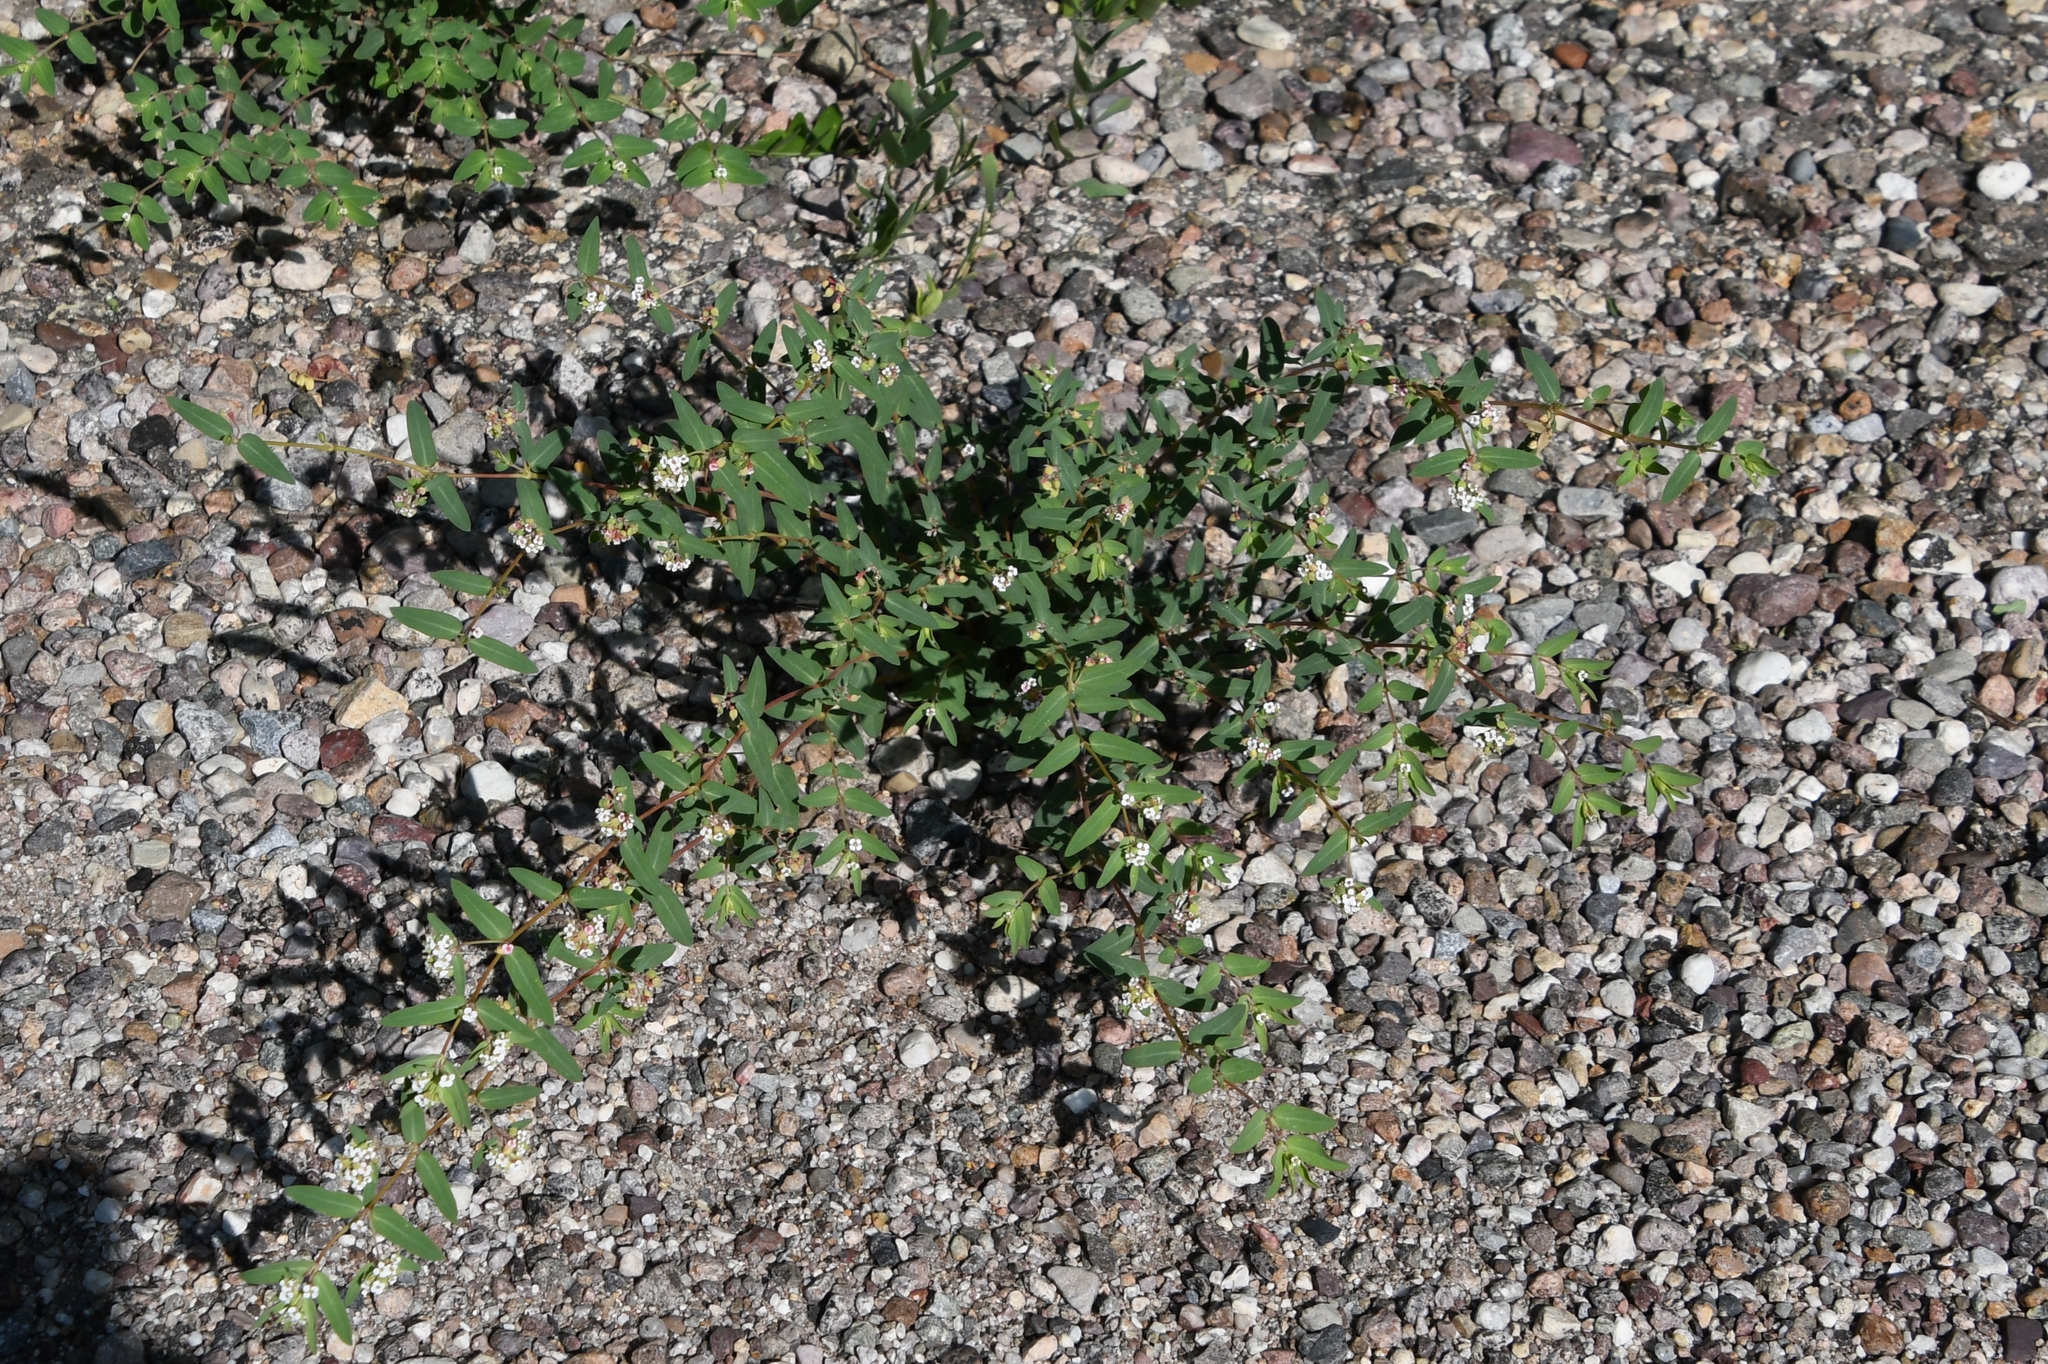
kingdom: Plantae
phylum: Tracheophyta
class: Magnoliopsida
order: Malpighiales
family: Euphorbiaceae
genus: Euphorbia
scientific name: Euphorbia capitellata
